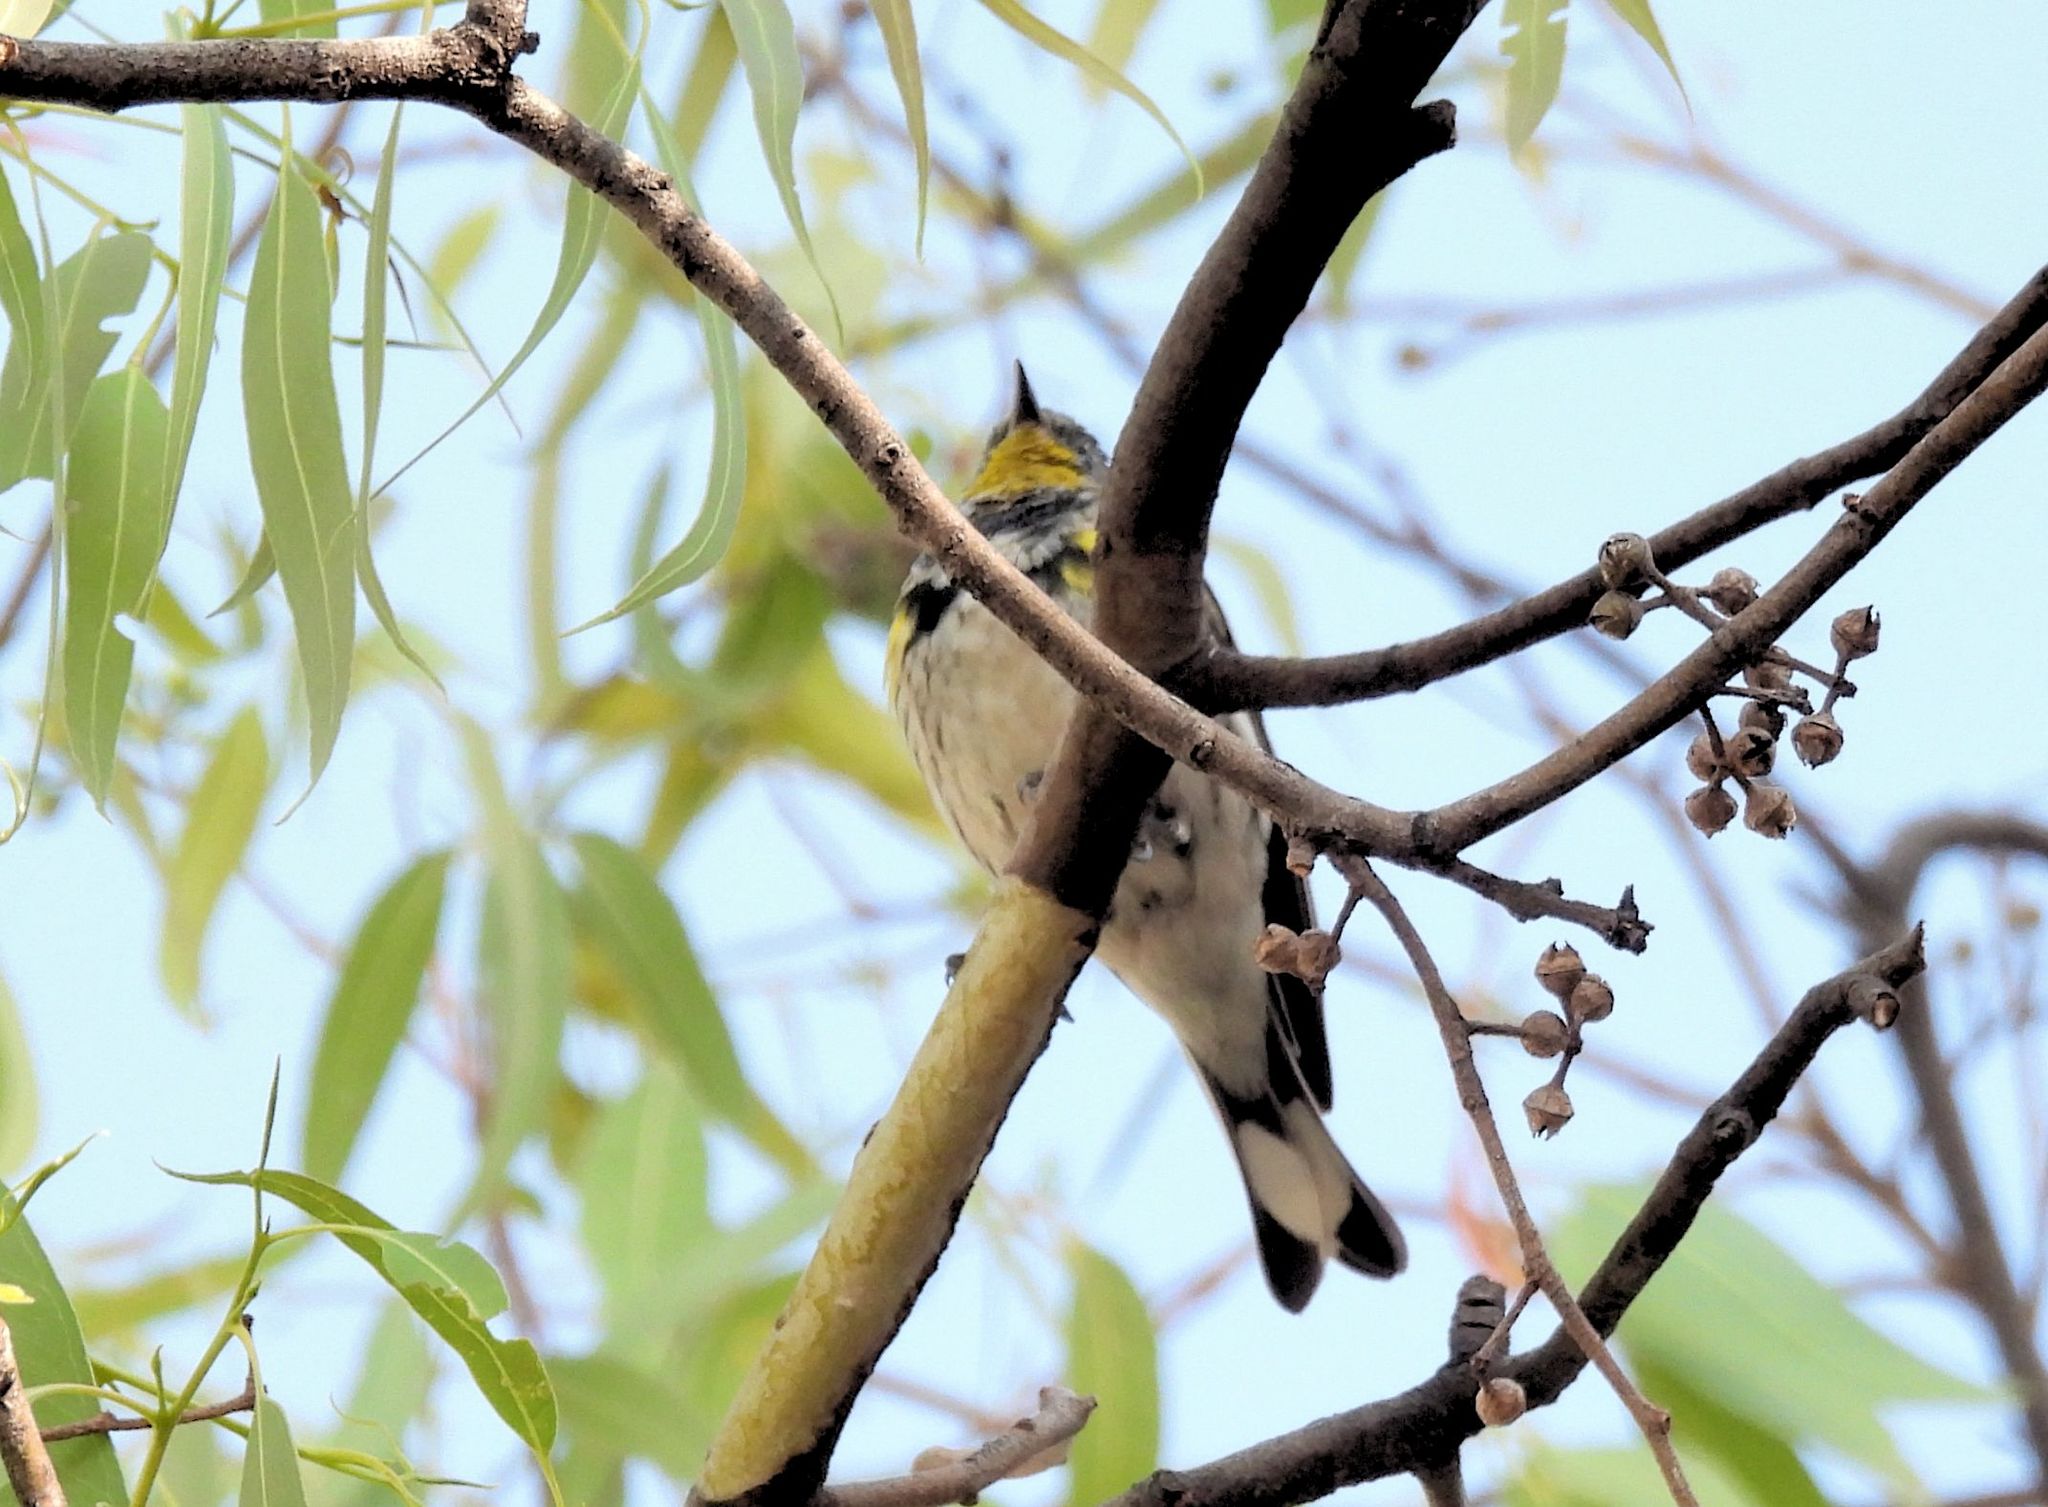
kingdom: Animalia
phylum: Chordata
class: Aves
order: Passeriformes
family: Parulidae
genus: Setophaga
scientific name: Setophaga auduboni
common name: Audubon's warbler
